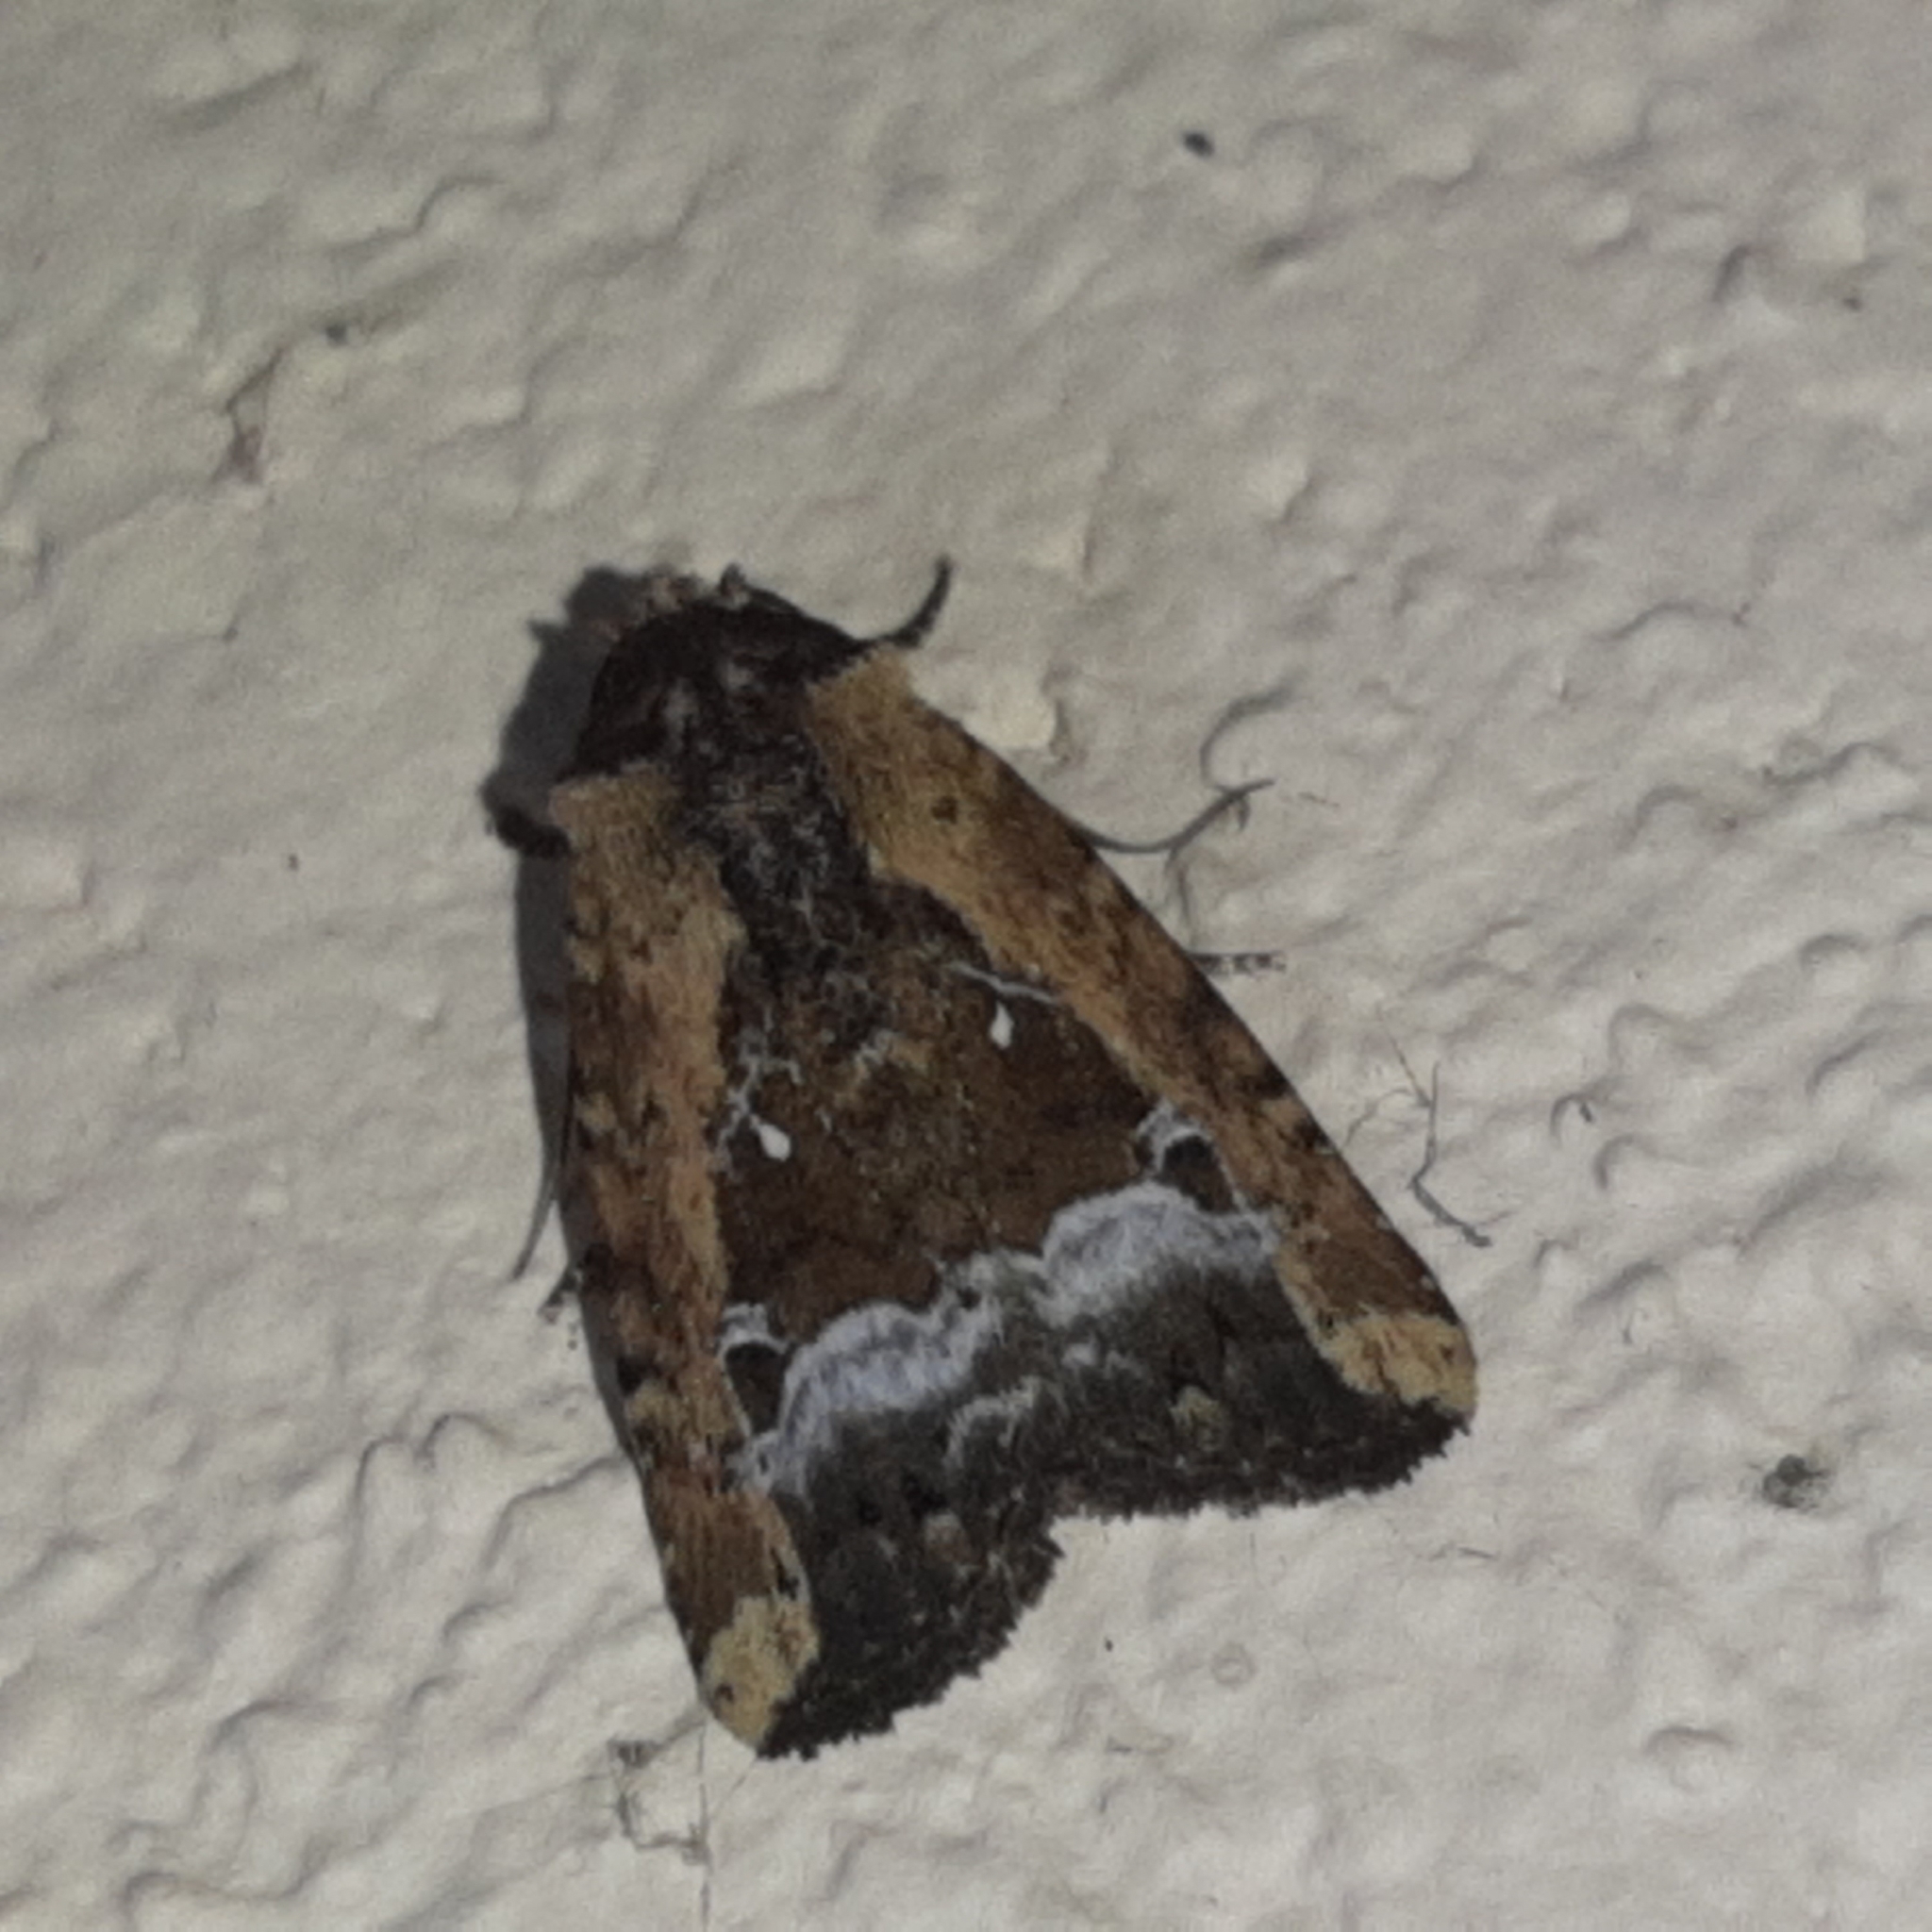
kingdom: Animalia
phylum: Arthropoda
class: Insecta
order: Lepidoptera
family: Noctuidae
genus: Elaphria
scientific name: Elaphria subobliqua
